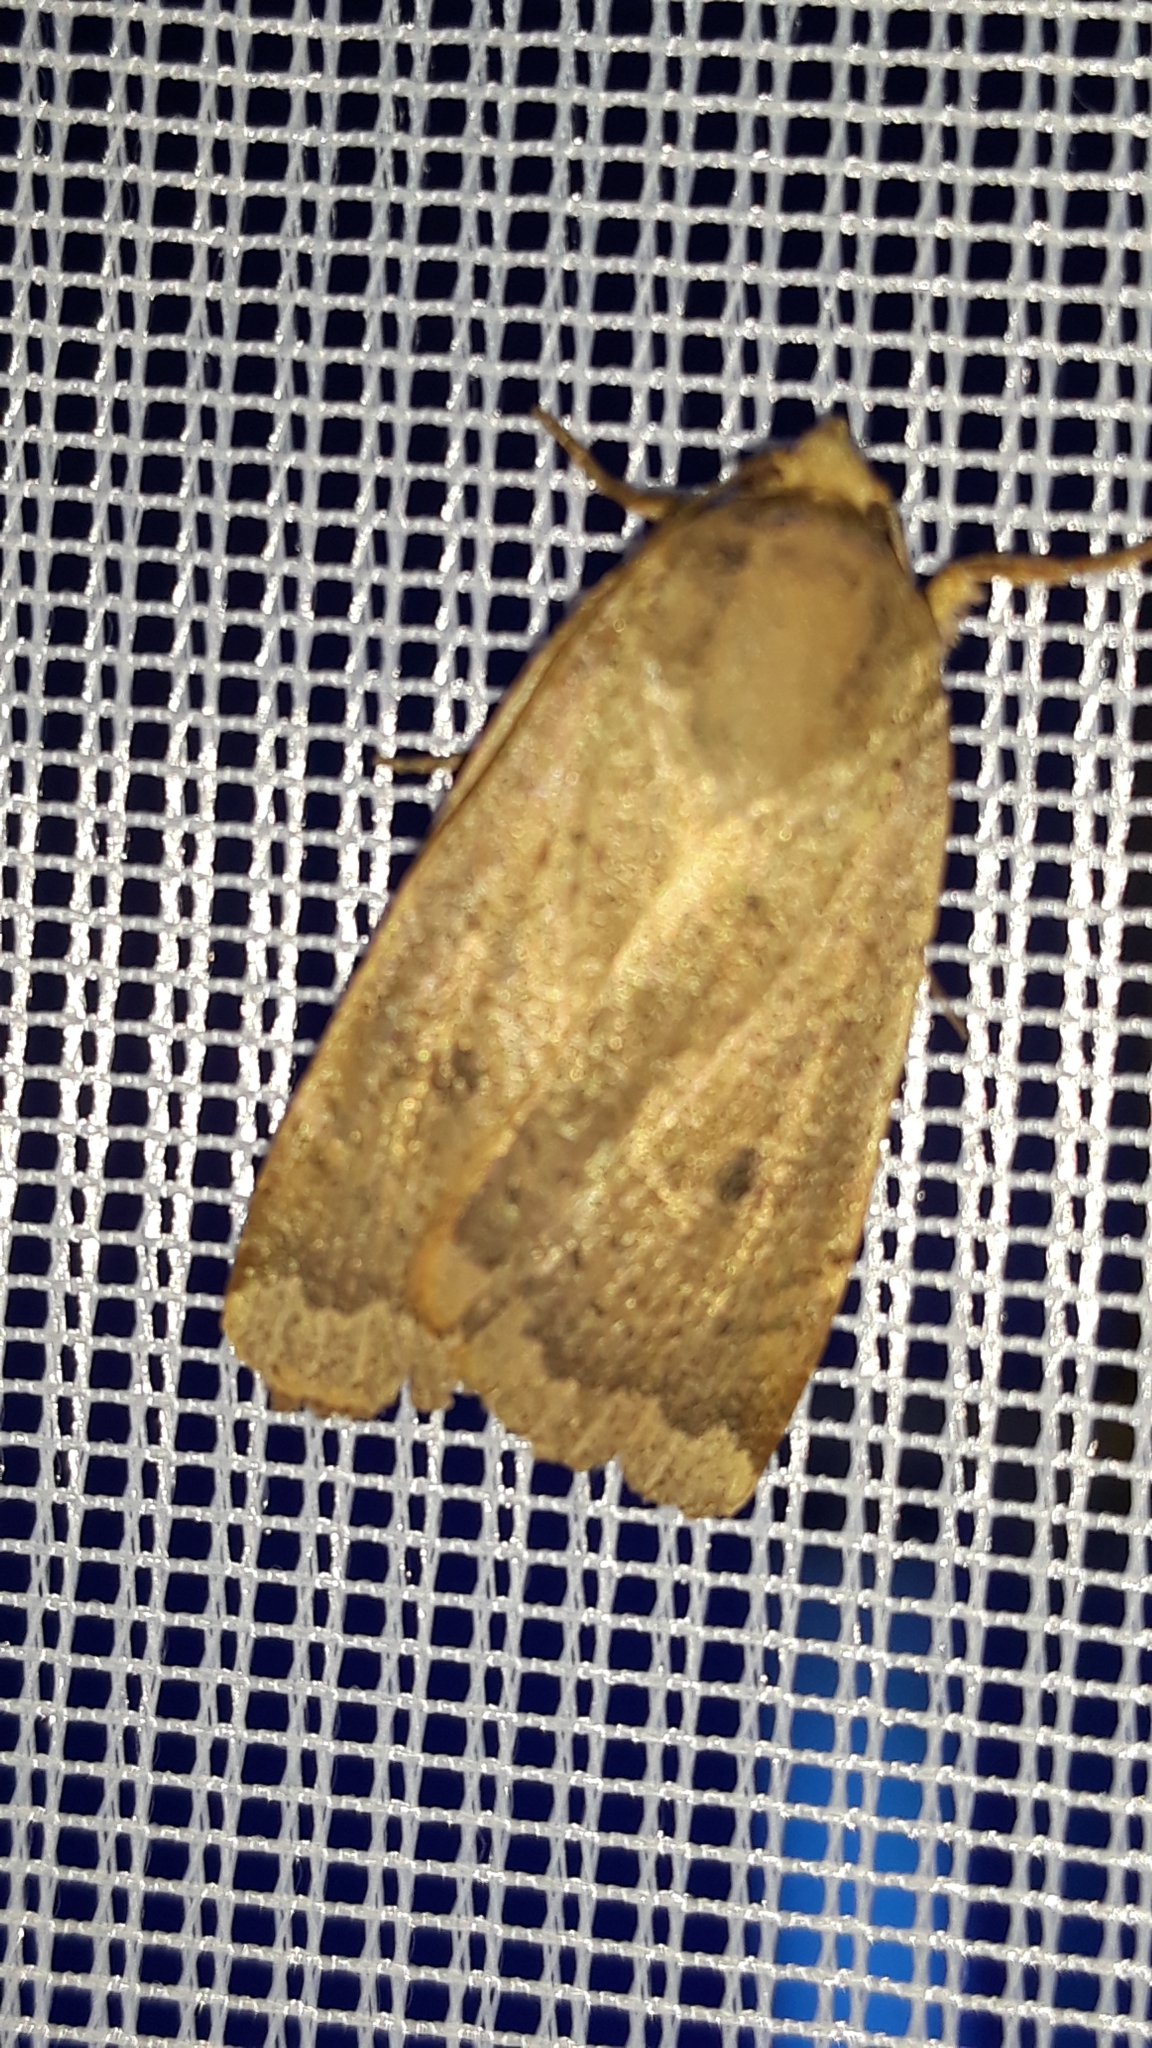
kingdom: Animalia
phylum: Arthropoda
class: Insecta
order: Lepidoptera
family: Noctuidae
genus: Noctua
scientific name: Noctua comes
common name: Lesser yellow underwing
